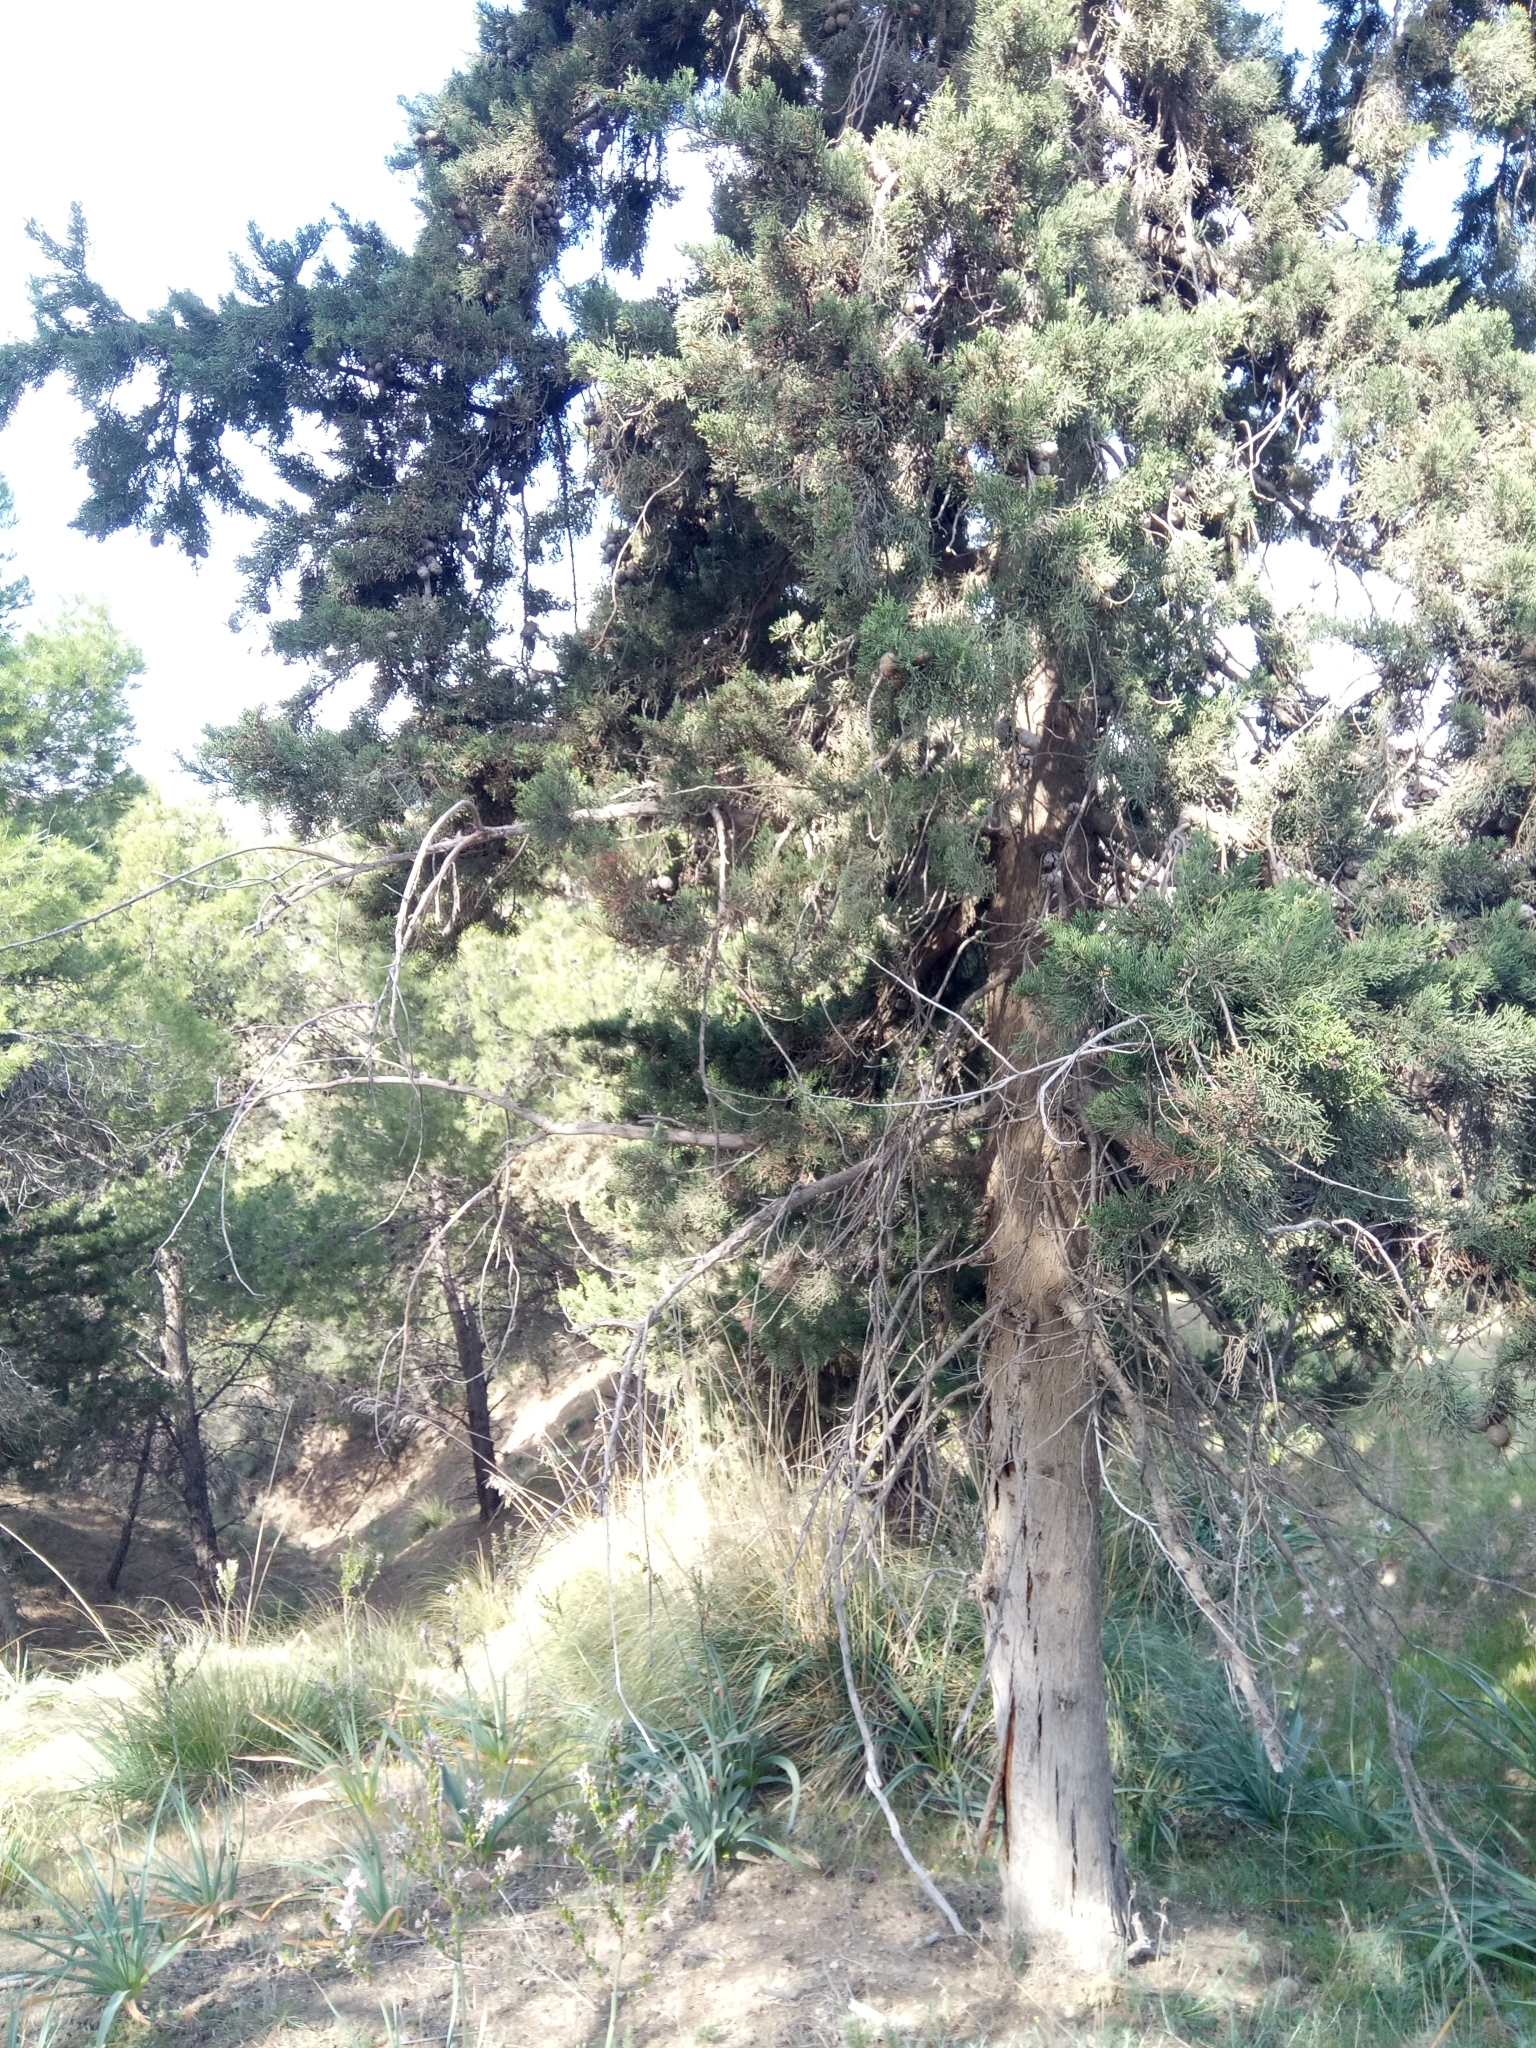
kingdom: Plantae
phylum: Tracheophyta
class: Pinopsida
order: Pinales
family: Cupressaceae
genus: Cupressus
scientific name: Cupressus sempervirens
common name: Italian cypress
